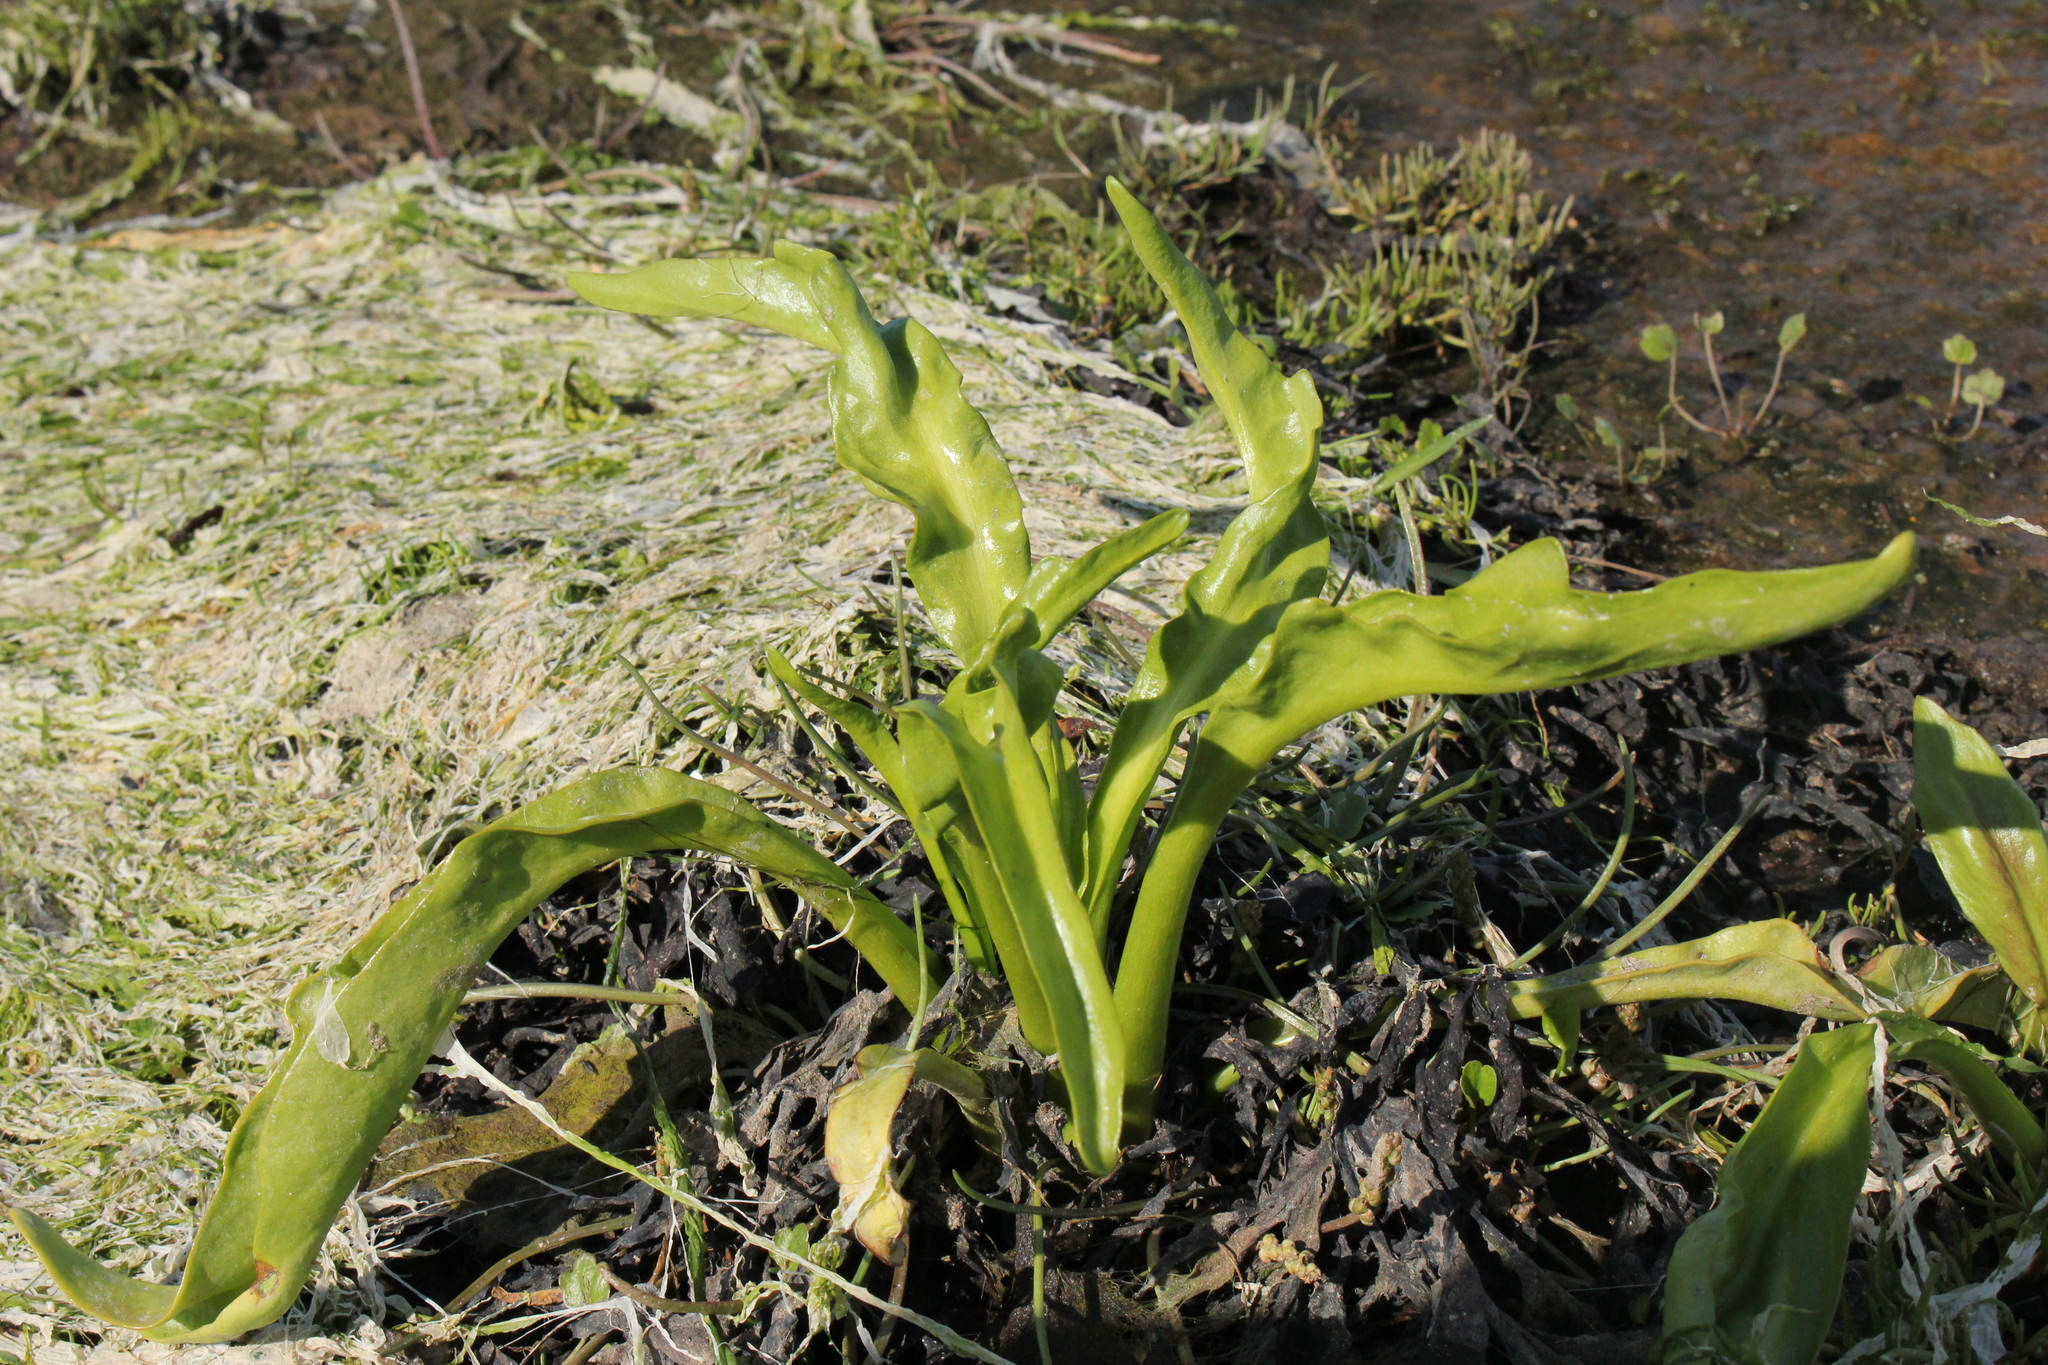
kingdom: Plantae
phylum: Tracheophyta
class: Magnoliopsida
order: Asterales
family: Asteraceae
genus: Tephroseris
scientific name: Tephroseris palustris
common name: Marsh fleawort
